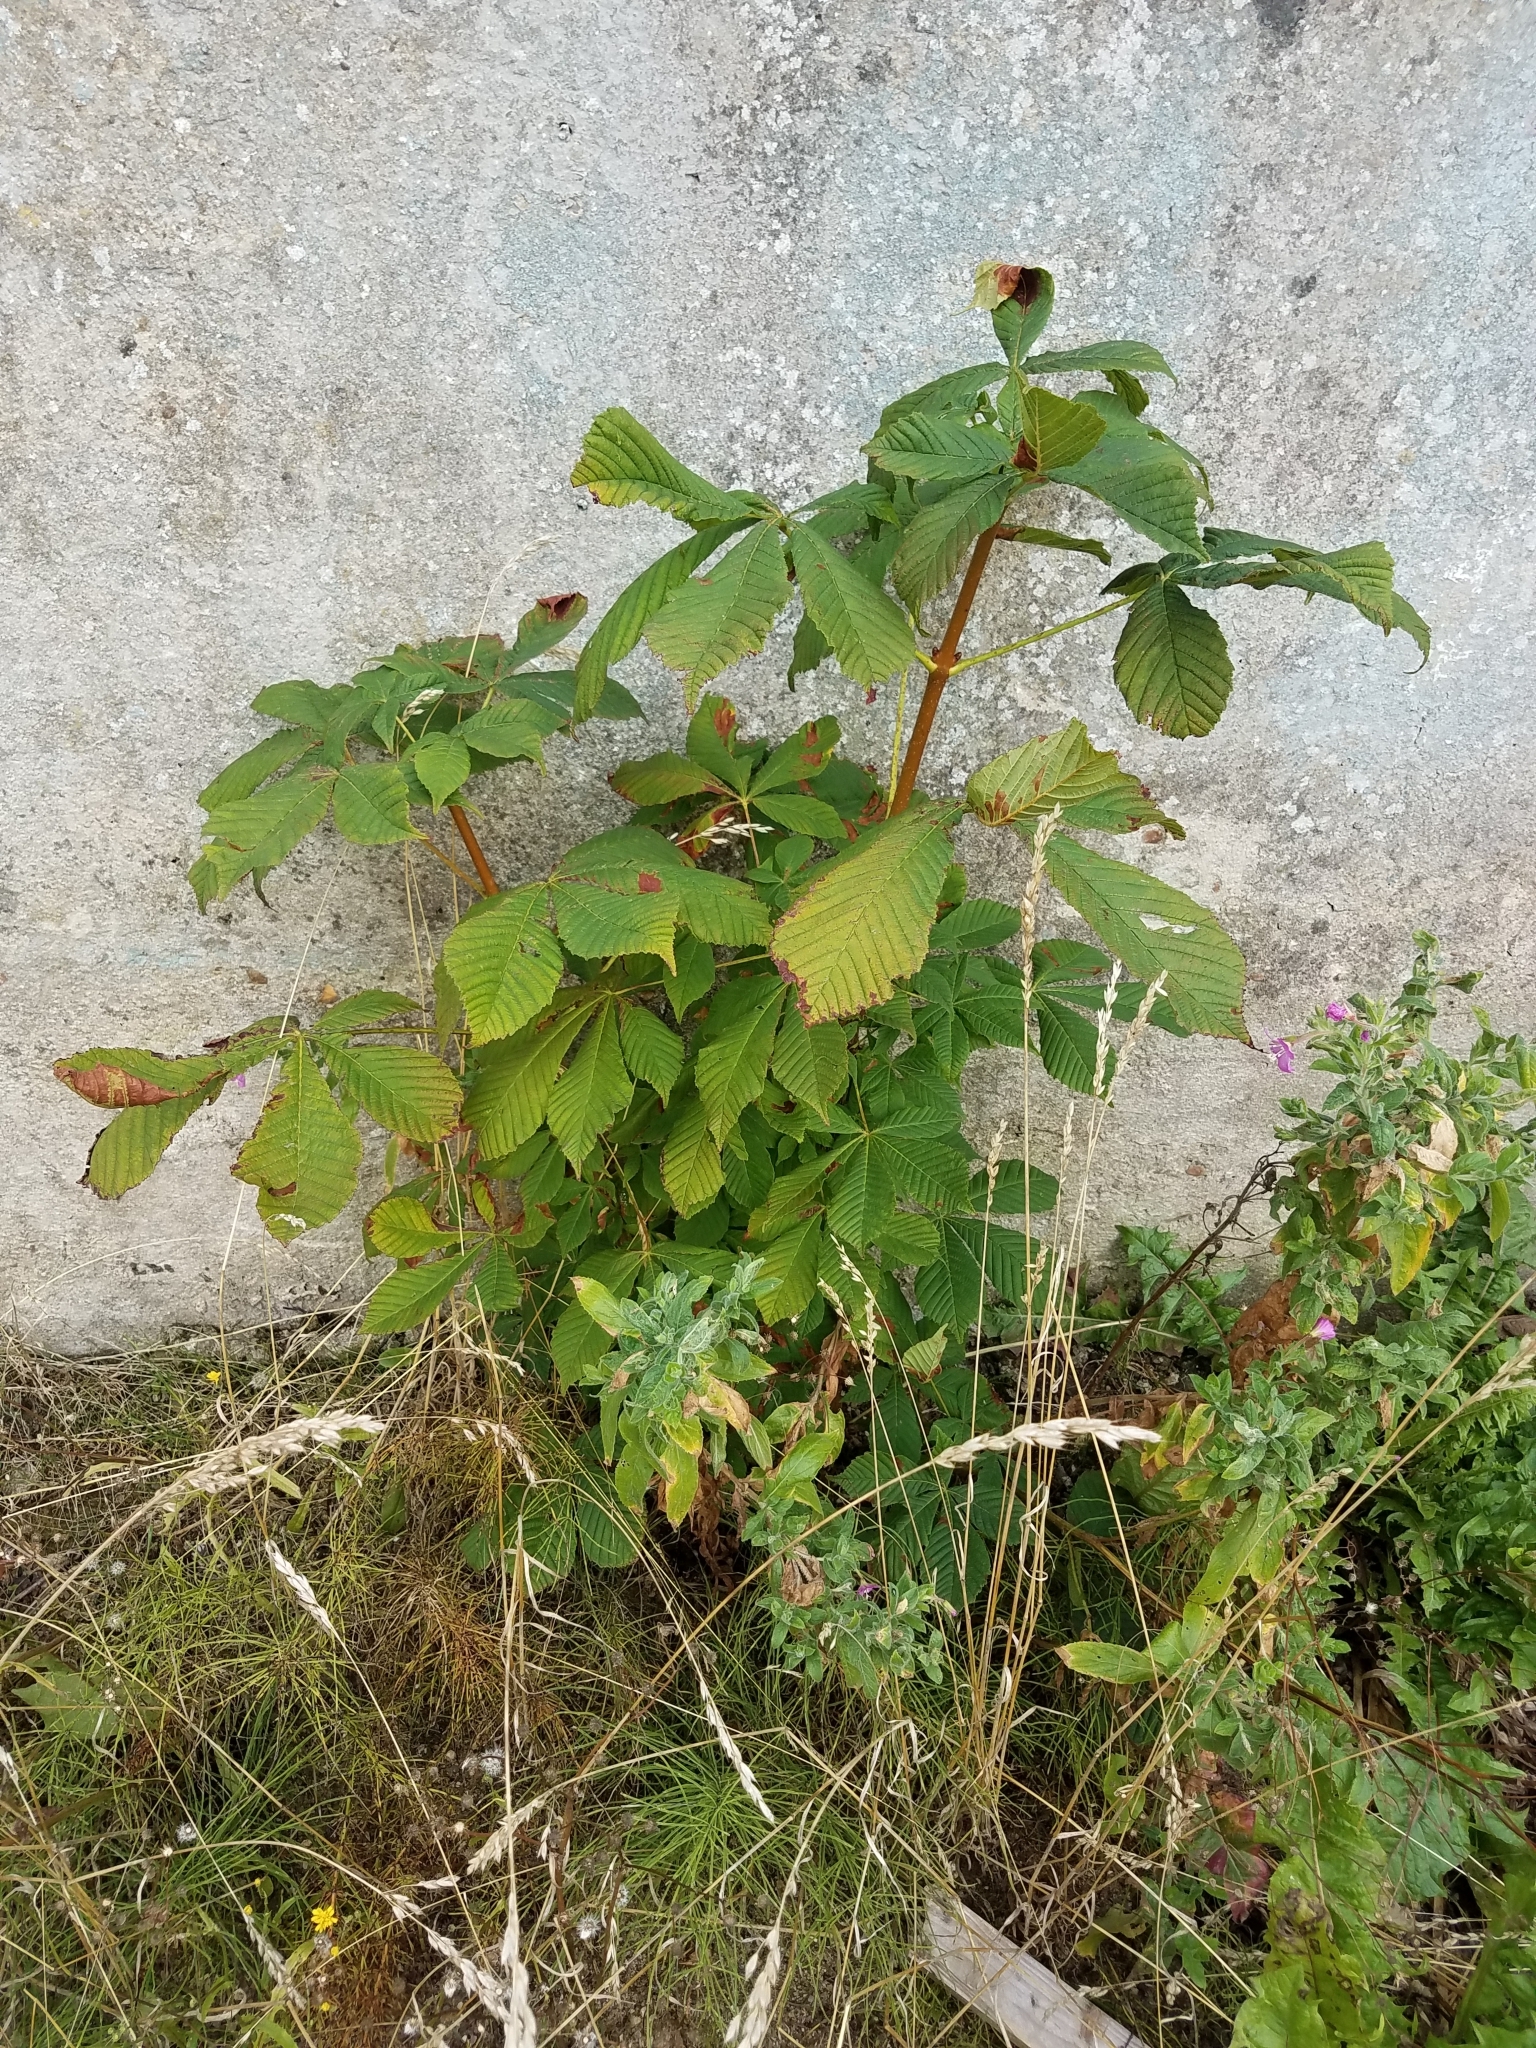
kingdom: Plantae
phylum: Tracheophyta
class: Magnoliopsida
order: Sapindales
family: Sapindaceae
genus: Aesculus
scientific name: Aesculus hippocastanum
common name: Horse-chestnut
